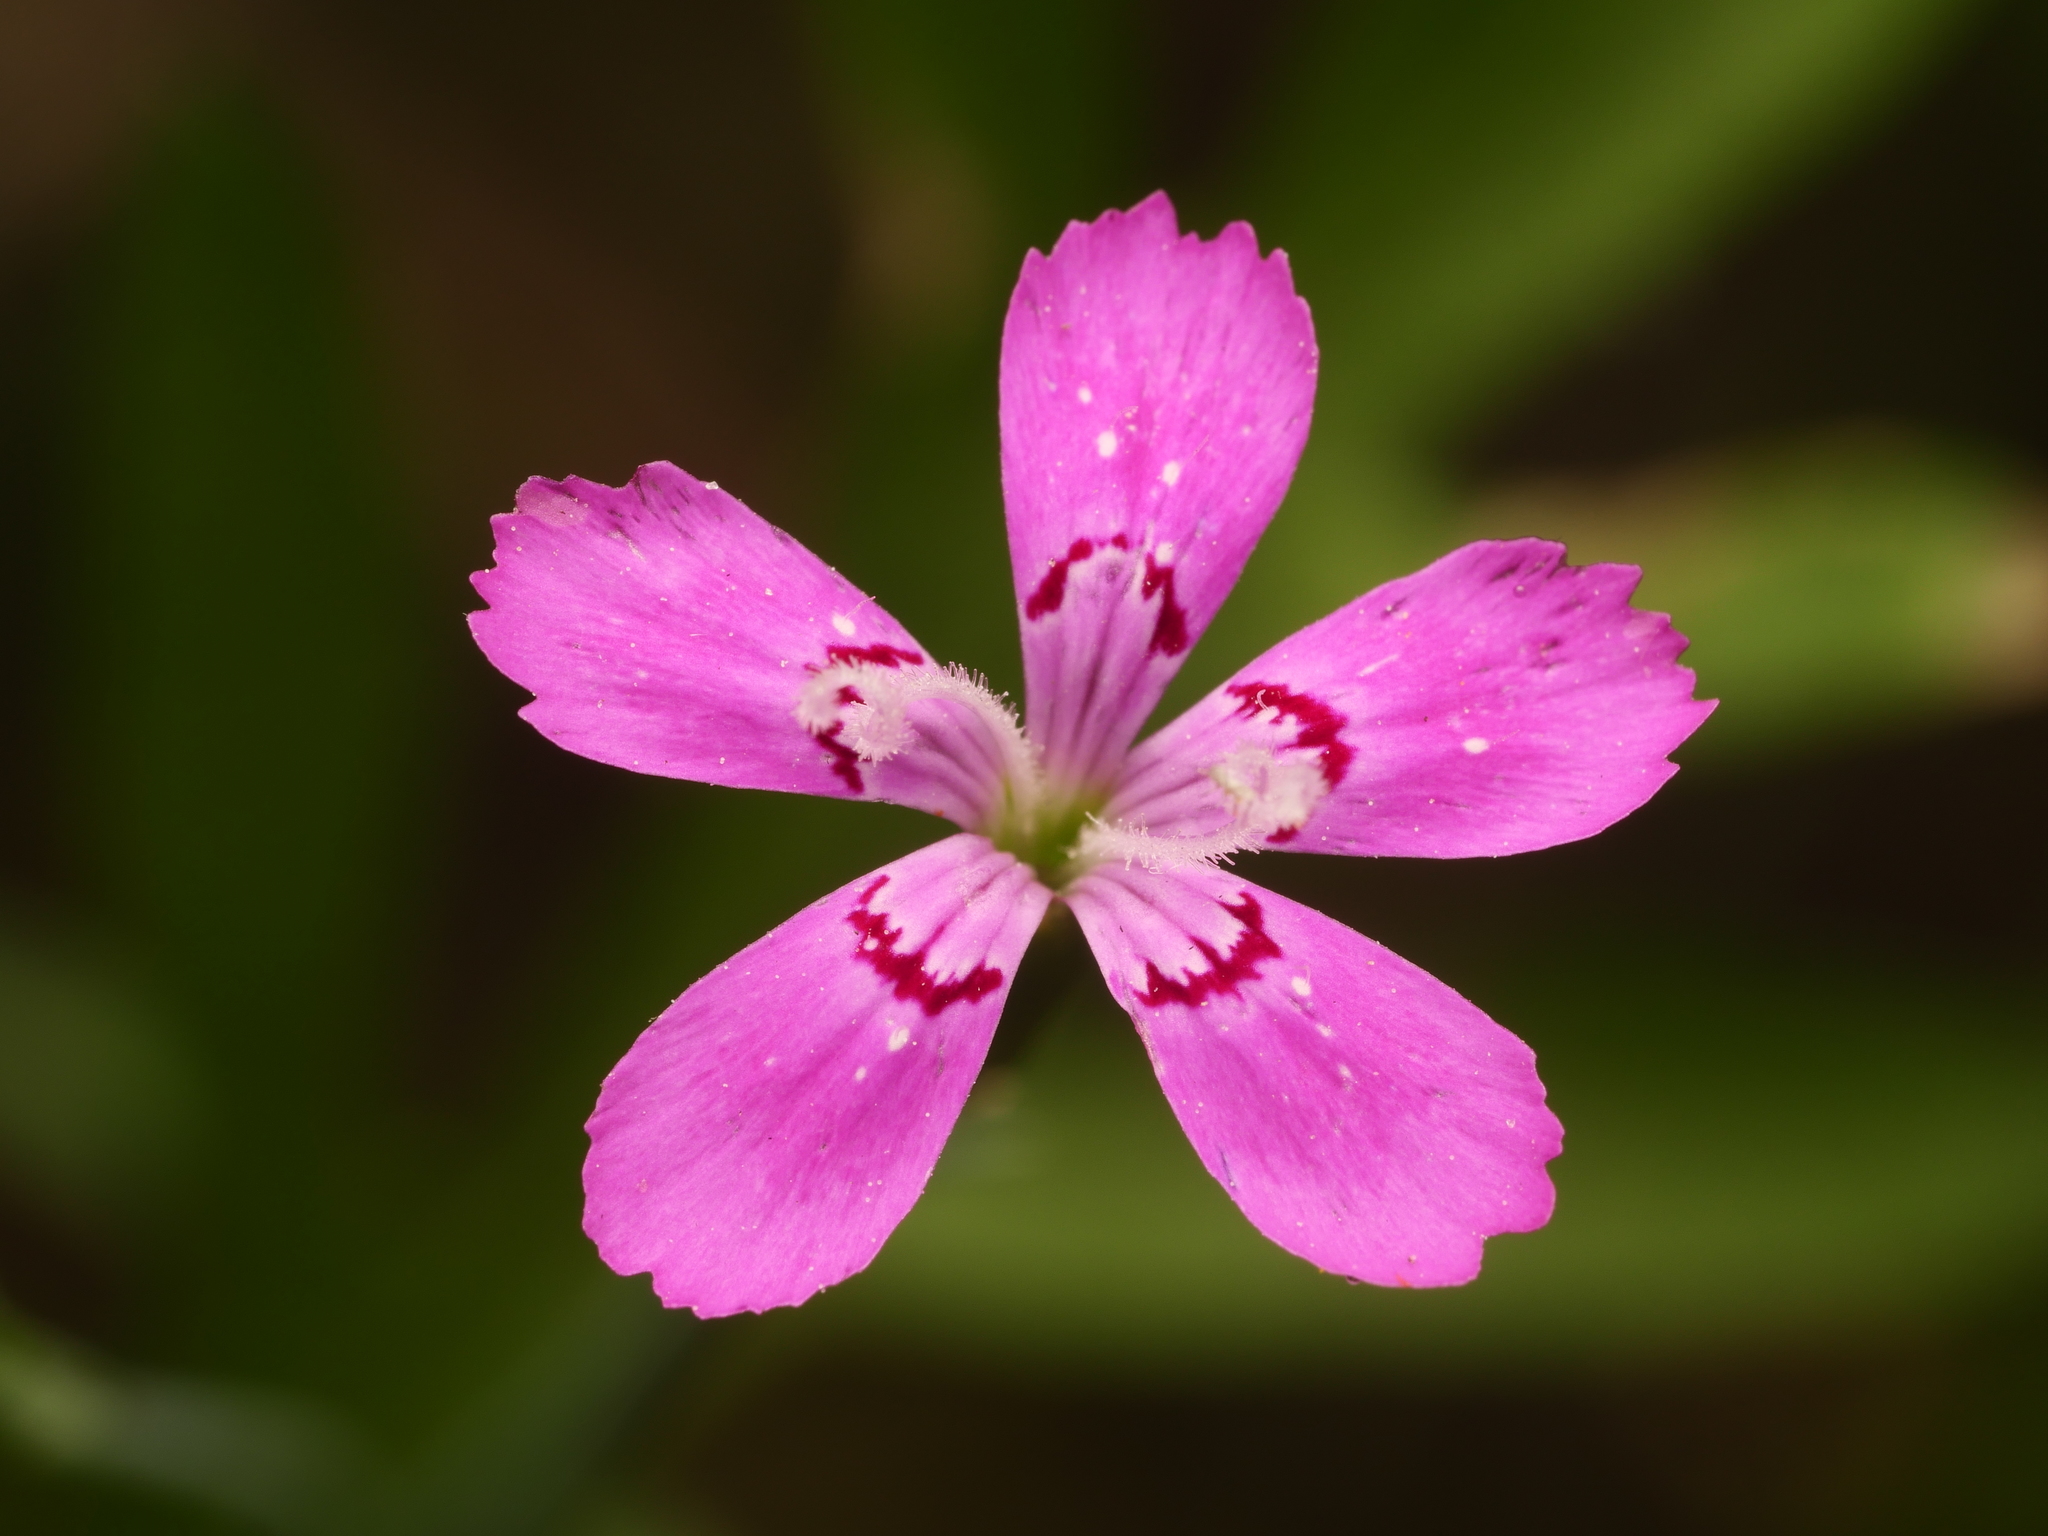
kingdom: Plantae
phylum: Tracheophyta
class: Magnoliopsida
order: Caryophyllales
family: Caryophyllaceae
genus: Dianthus
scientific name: Dianthus deltoides
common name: Maiden pink
